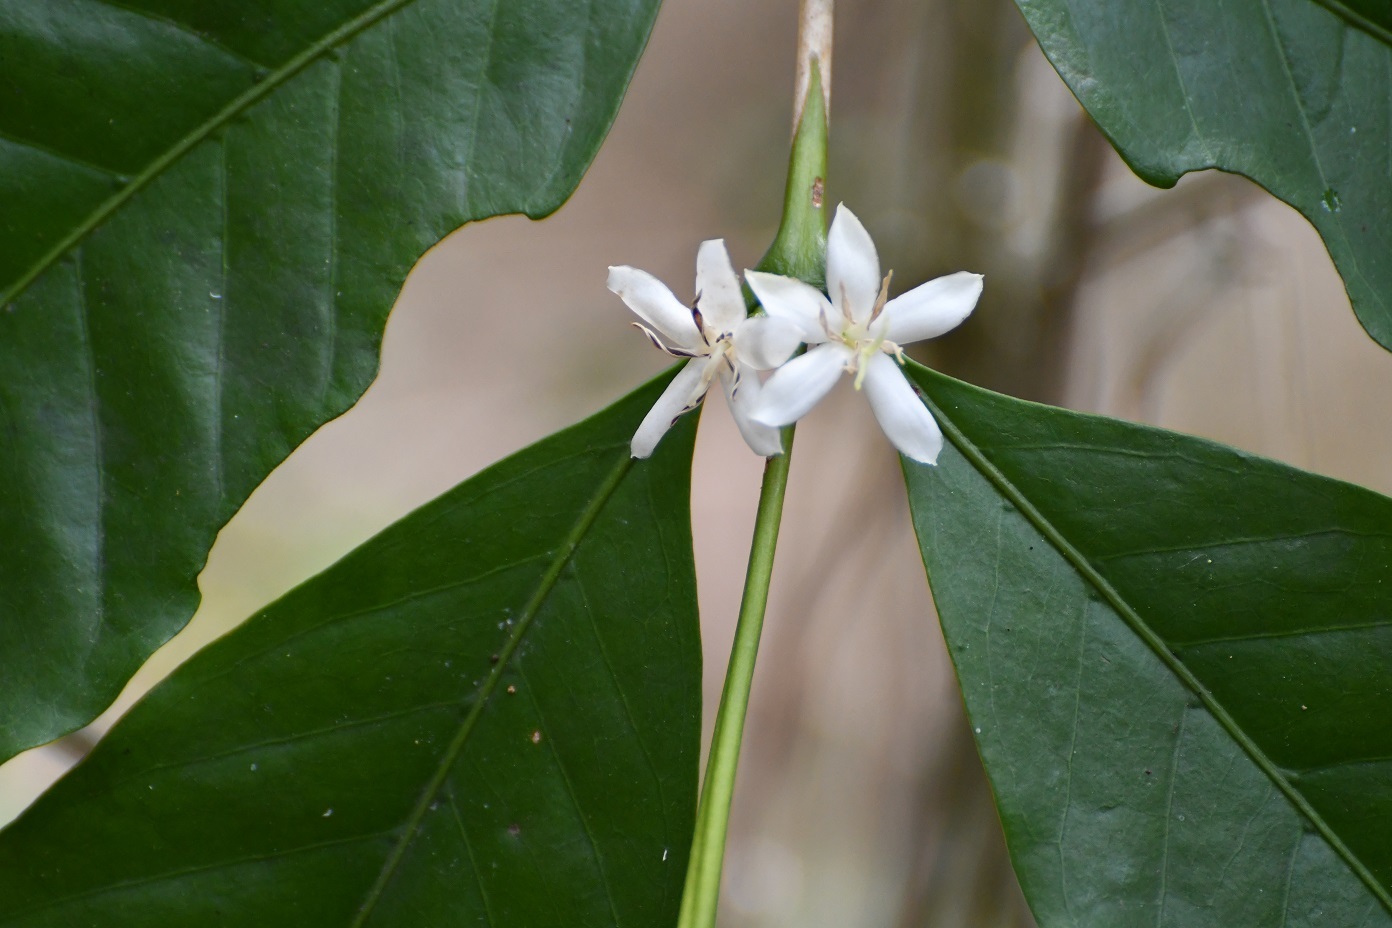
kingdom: Plantae
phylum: Tracheophyta
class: Magnoliopsida
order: Gentianales
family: Rubiaceae
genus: Coffea
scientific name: Coffea arabica
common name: Coffee
